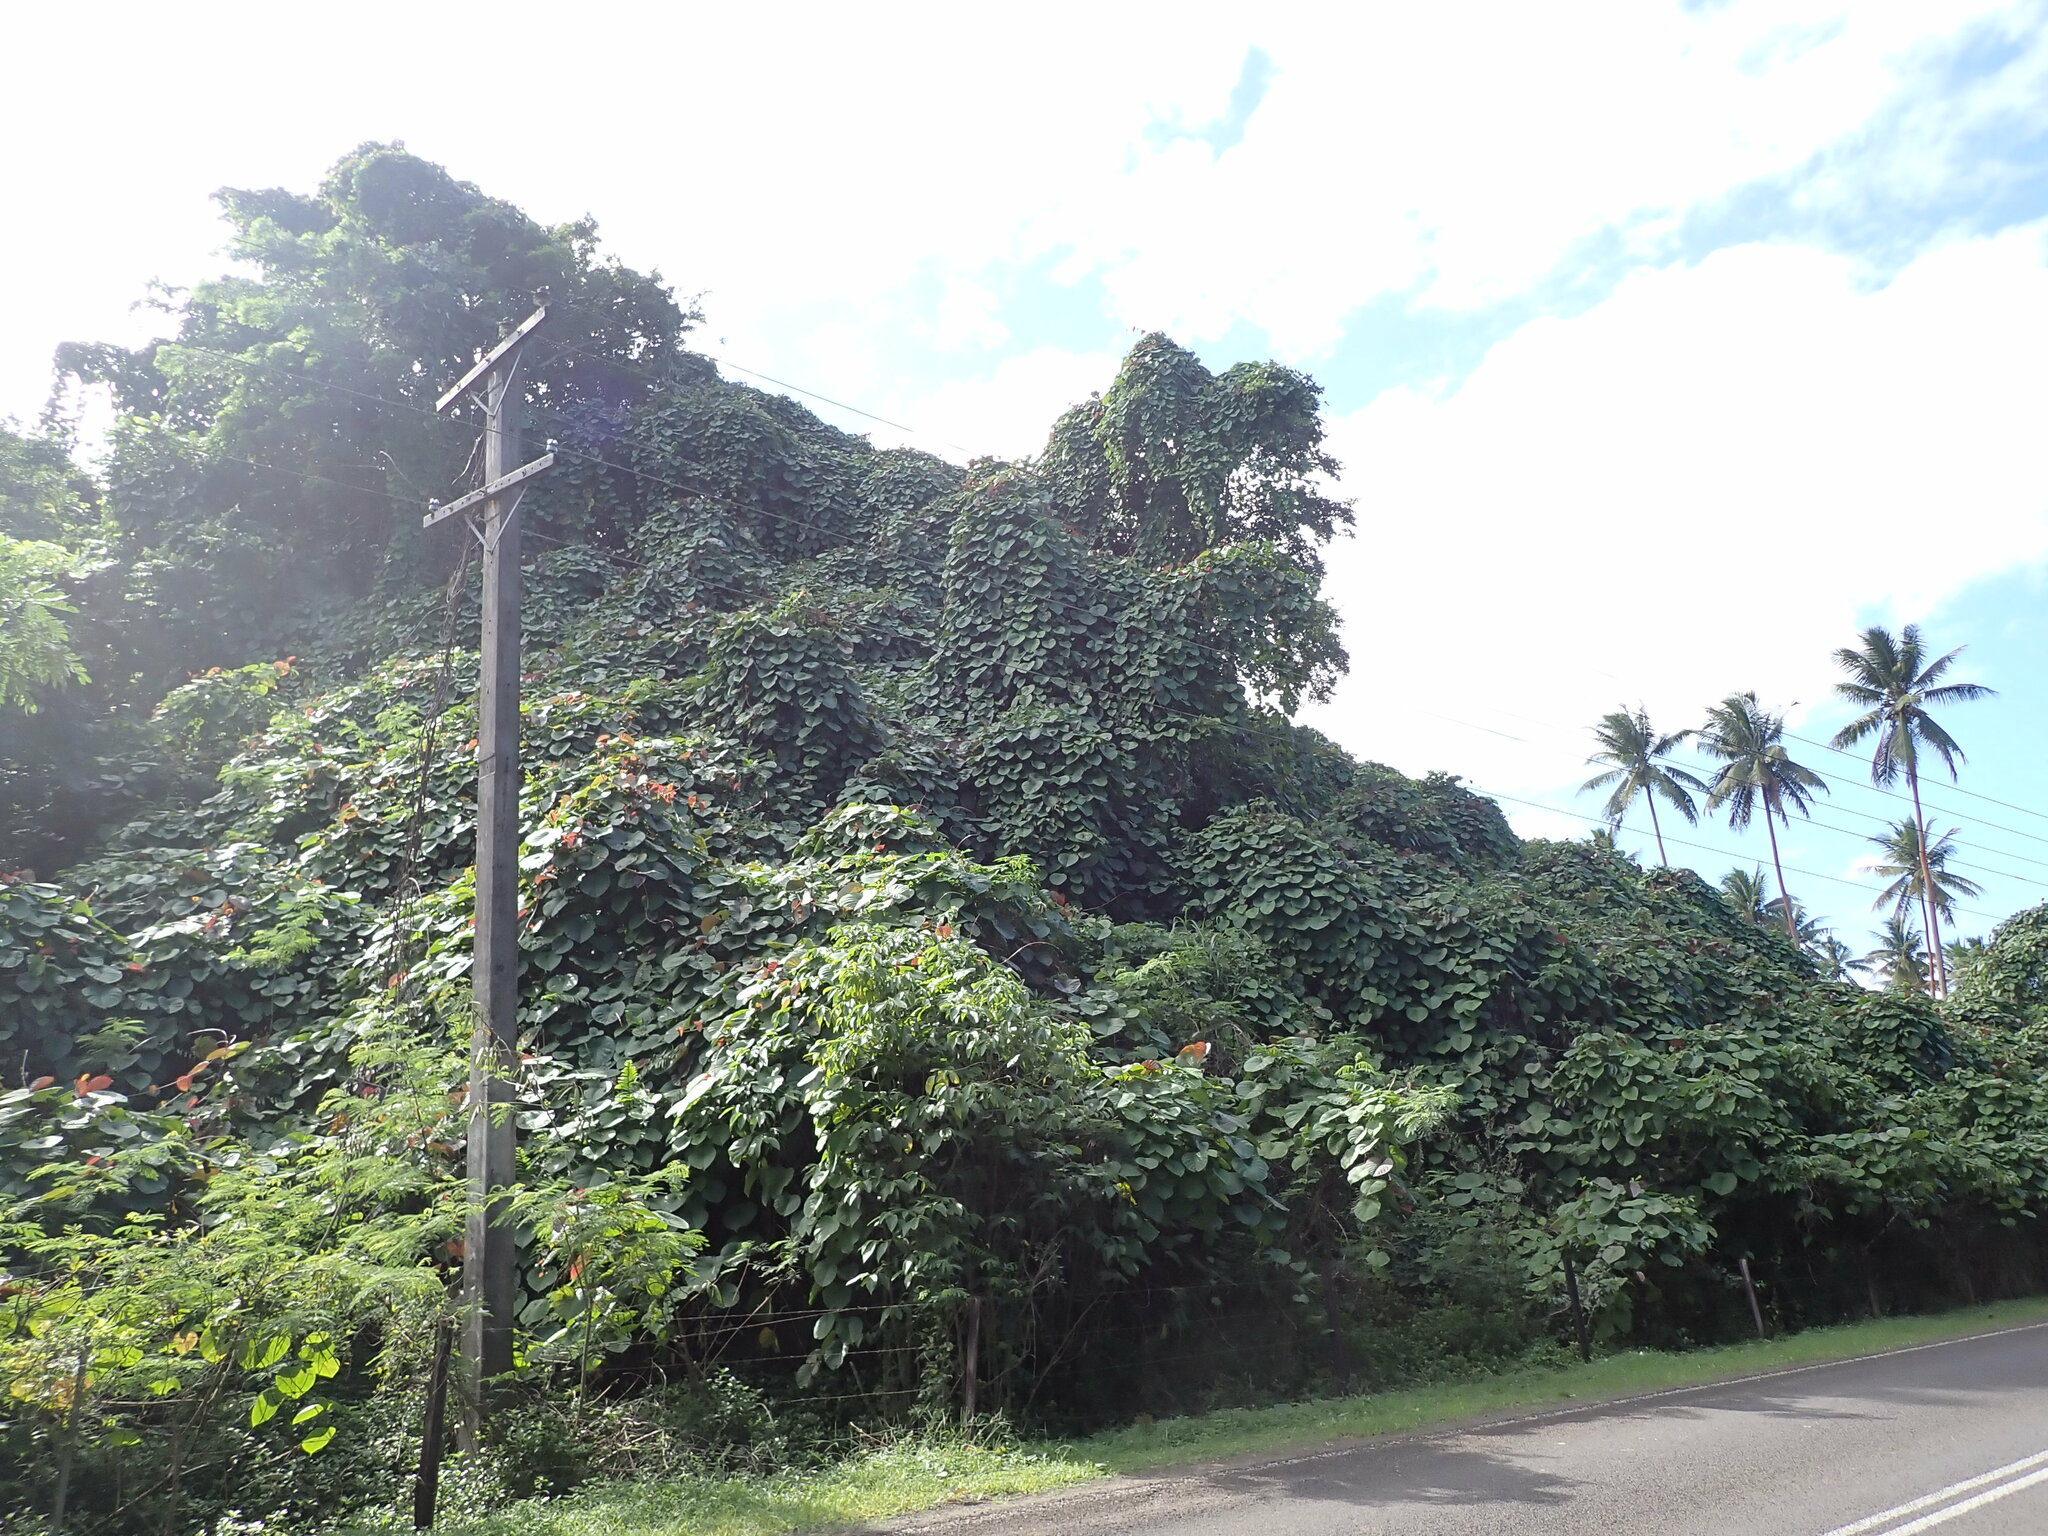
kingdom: Plantae
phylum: Tracheophyta
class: Magnoliopsida
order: Solanales
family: Convolvulaceae
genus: Decalobanthus
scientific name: Decalobanthus peltatus
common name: Merremia
